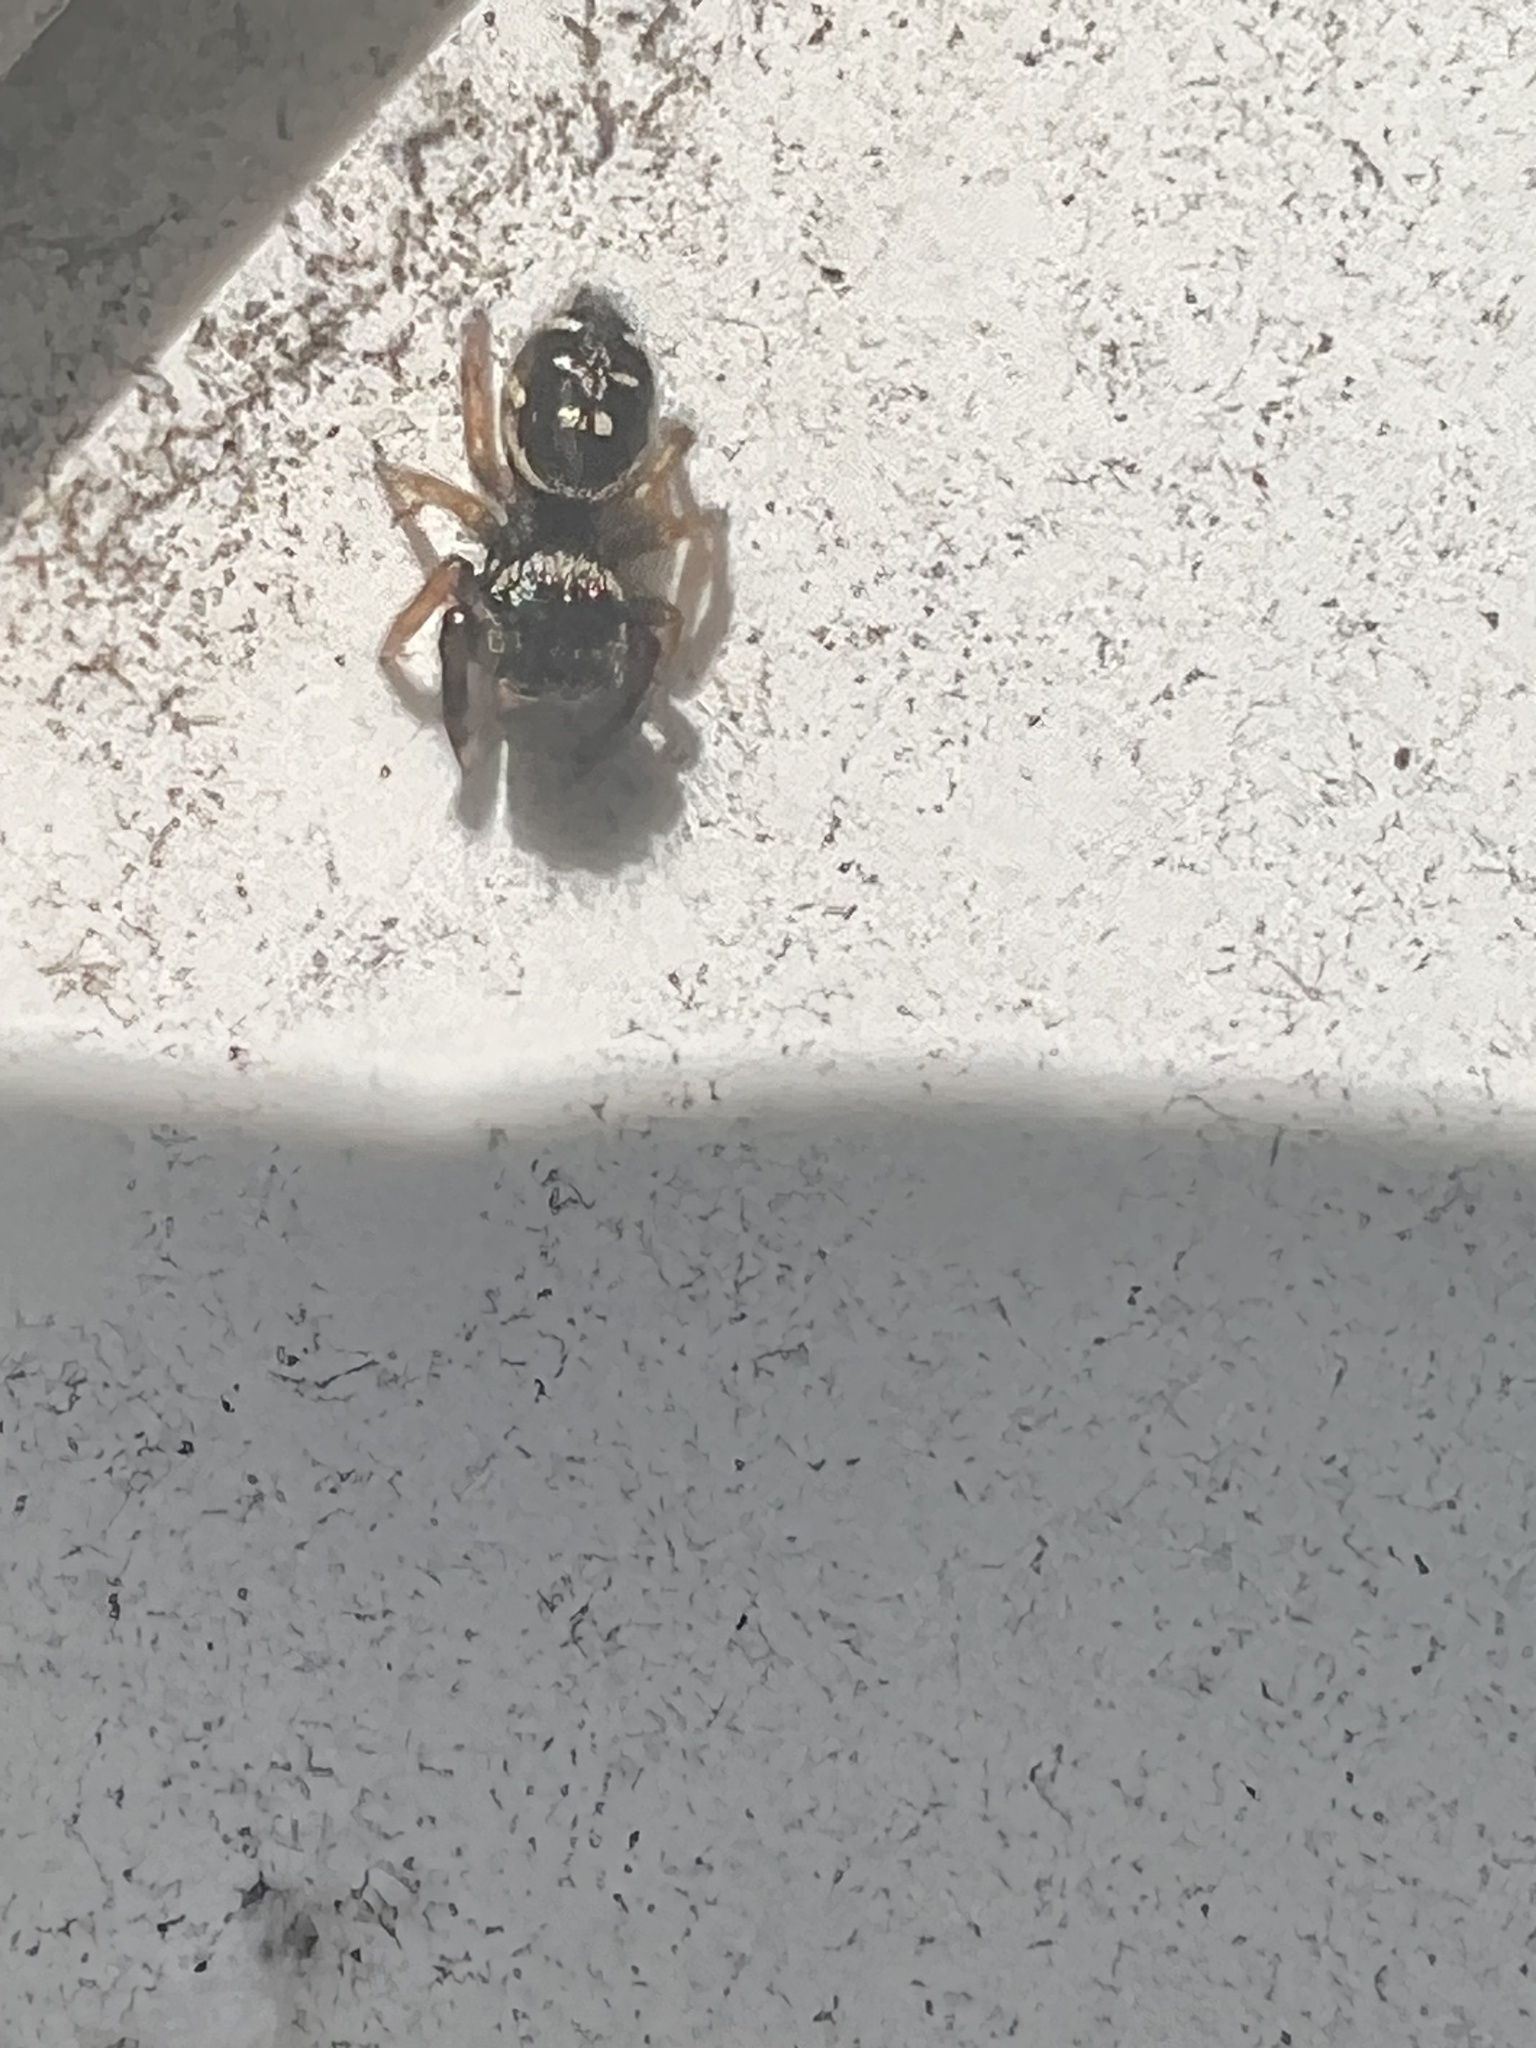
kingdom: Animalia
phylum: Arthropoda
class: Arachnida
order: Araneae
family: Salticidae
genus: Paraphidippus
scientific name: Paraphidippus aurantius
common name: Jumping spiders
